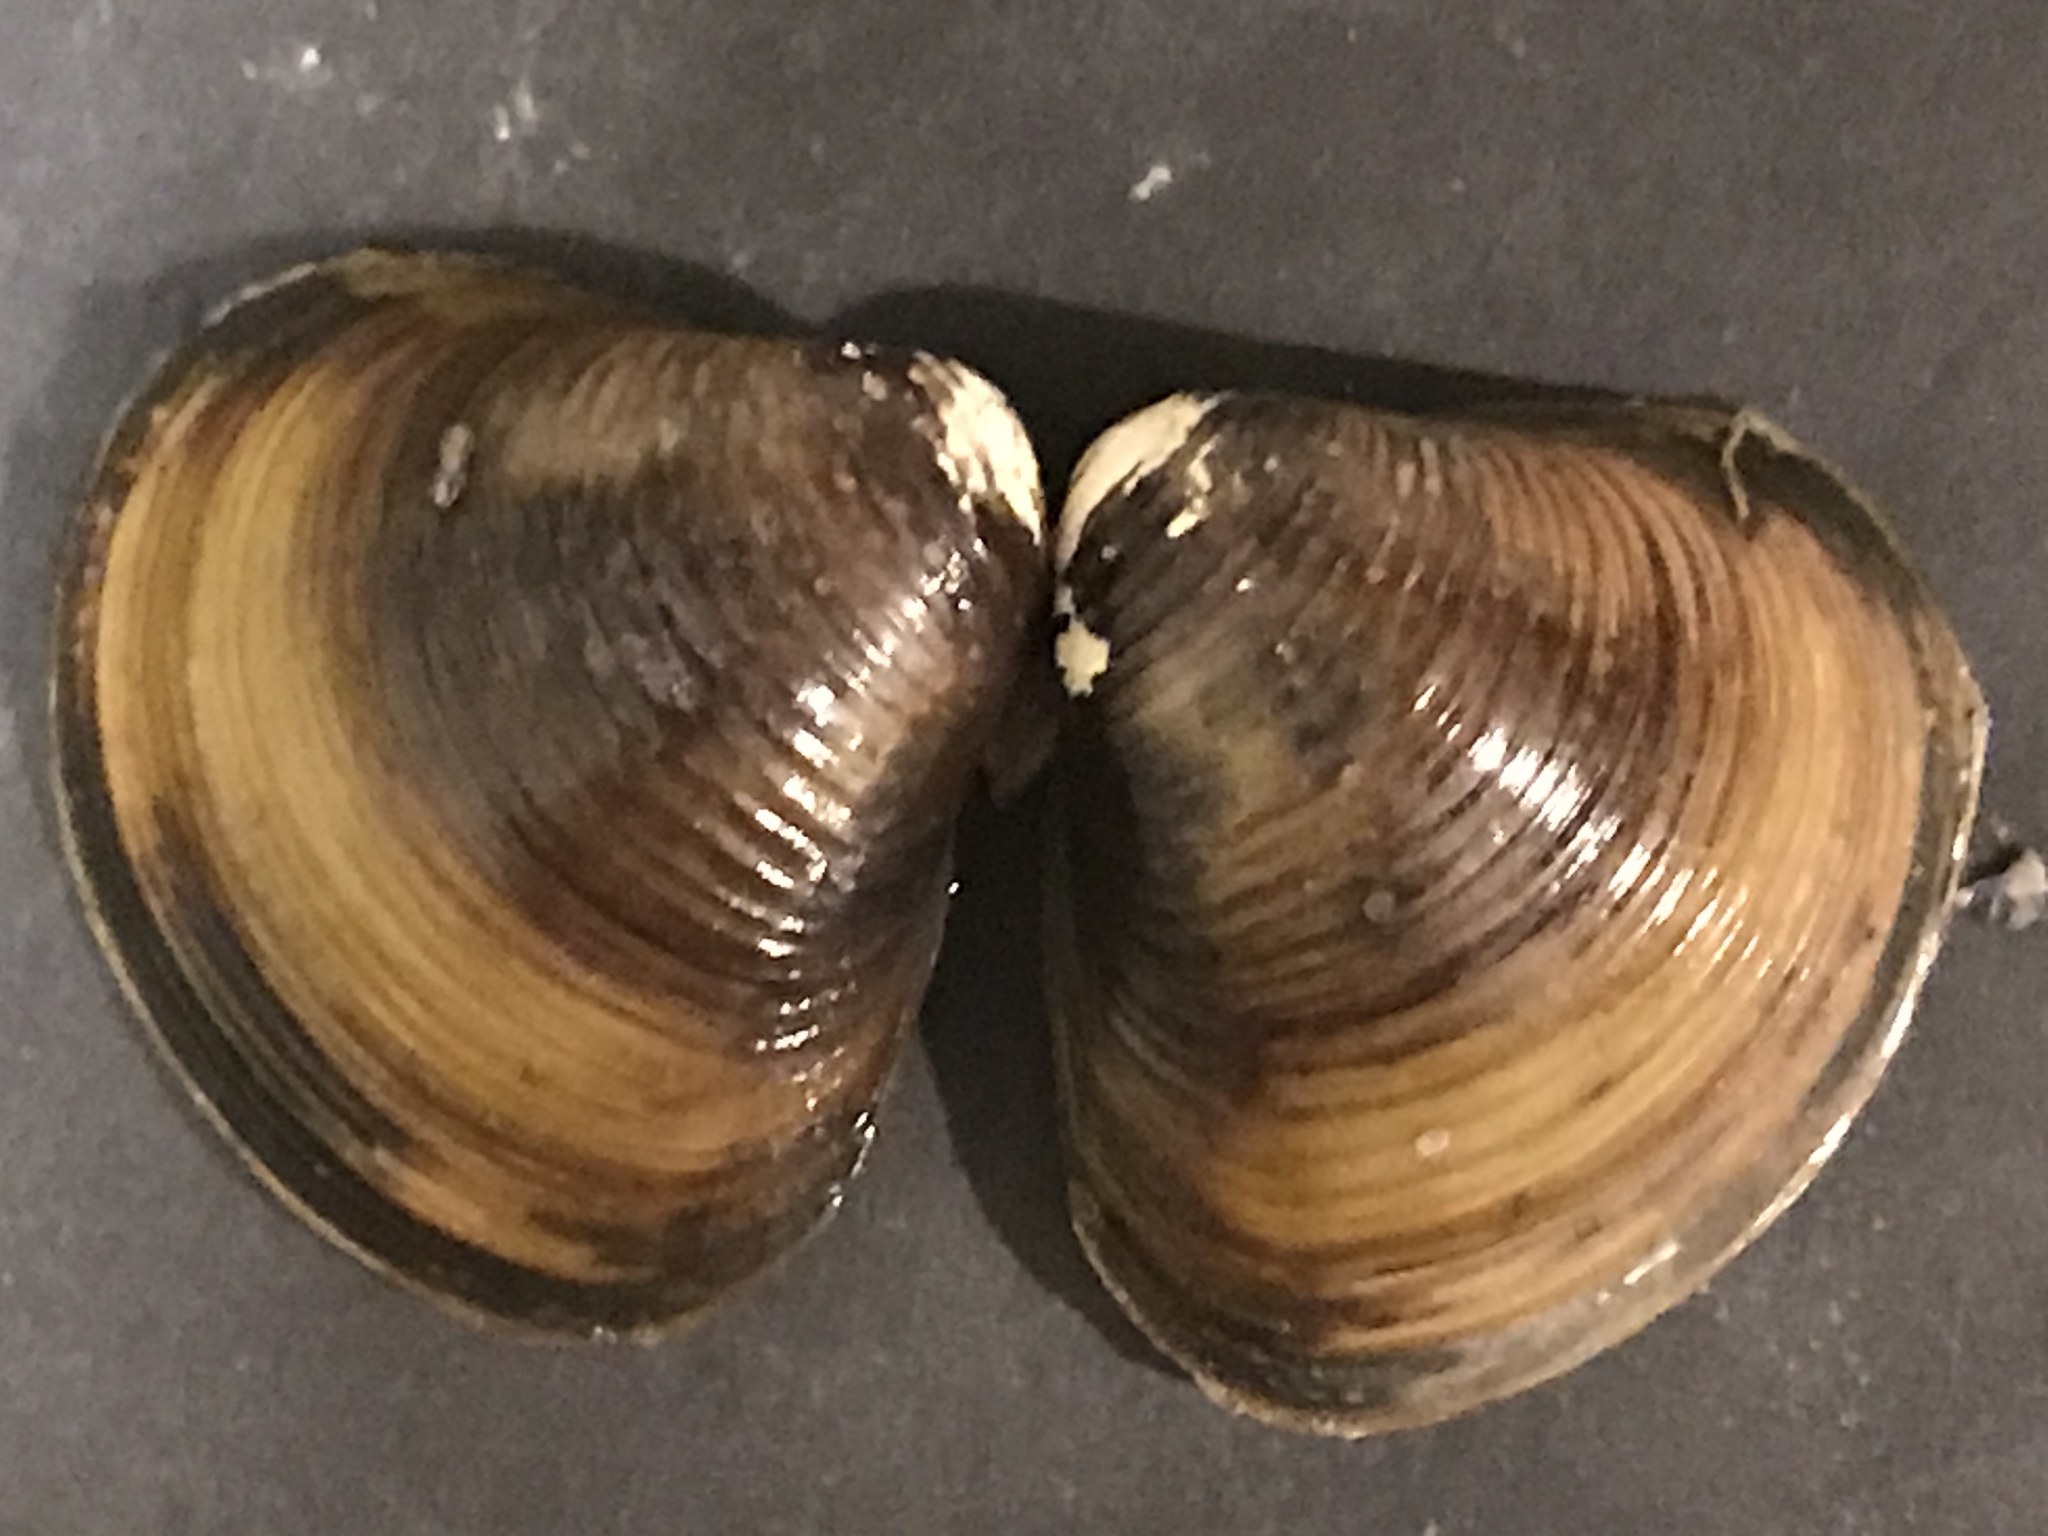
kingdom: Animalia
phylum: Mollusca
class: Bivalvia
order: Venerida
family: Cyrenidae
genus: Corbicula
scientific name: Corbicula fluminea
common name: Asian clam
